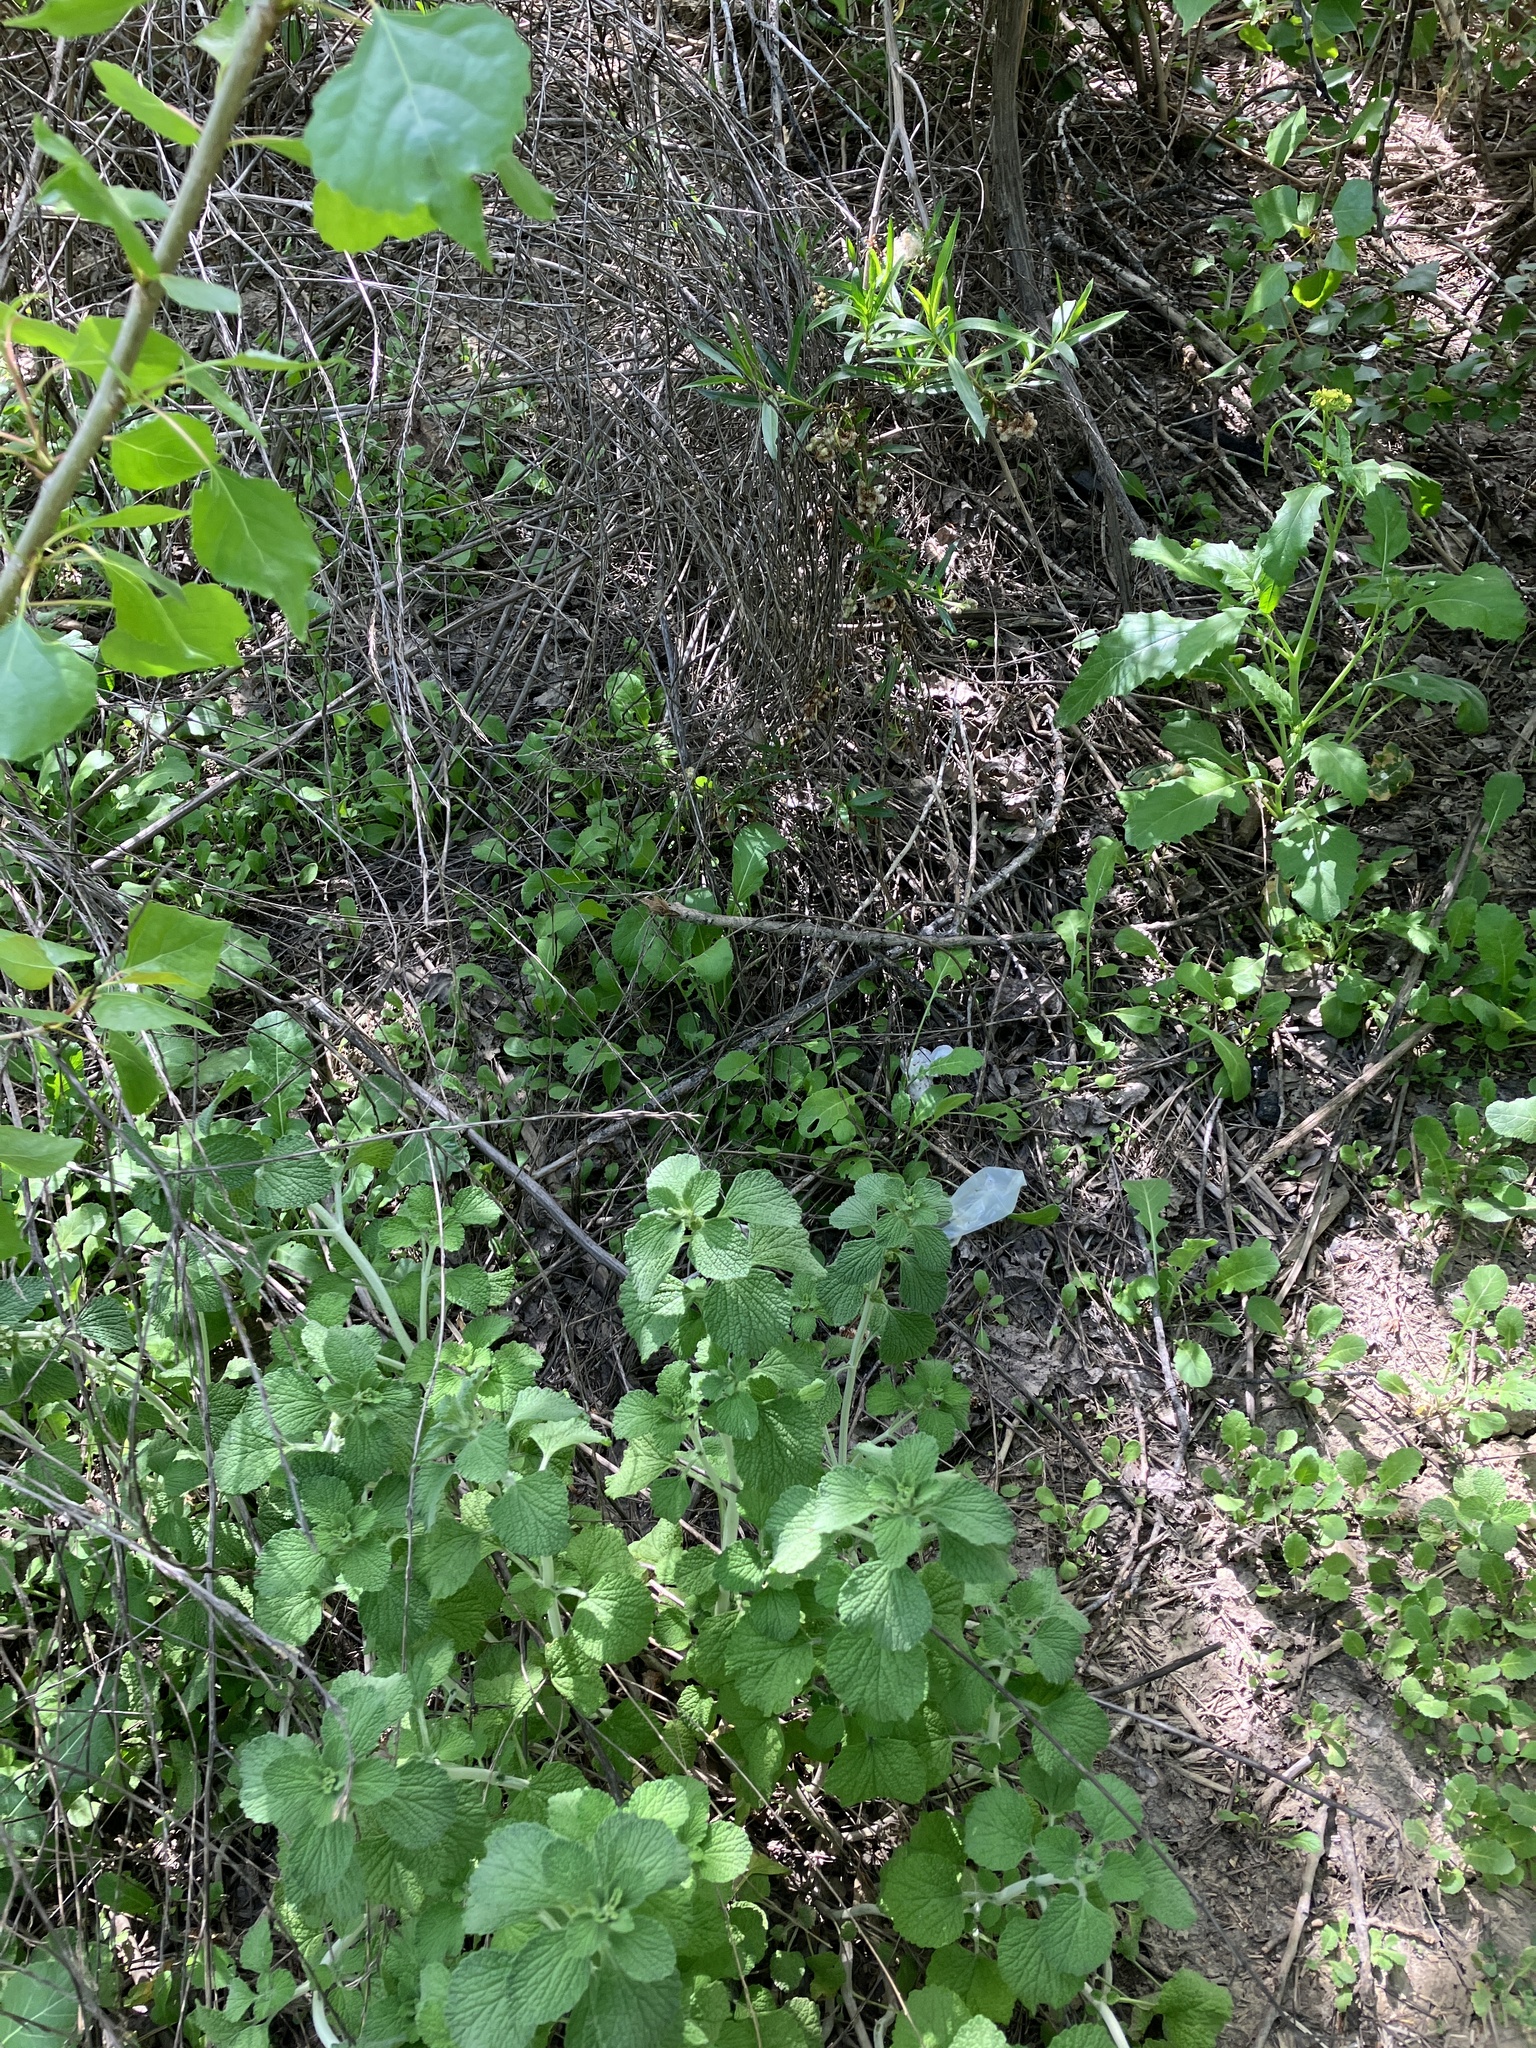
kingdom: Plantae
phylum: Tracheophyta
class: Magnoliopsida
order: Lamiales
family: Lamiaceae
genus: Marrubium
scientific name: Marrubium vulgare
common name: Horehound
